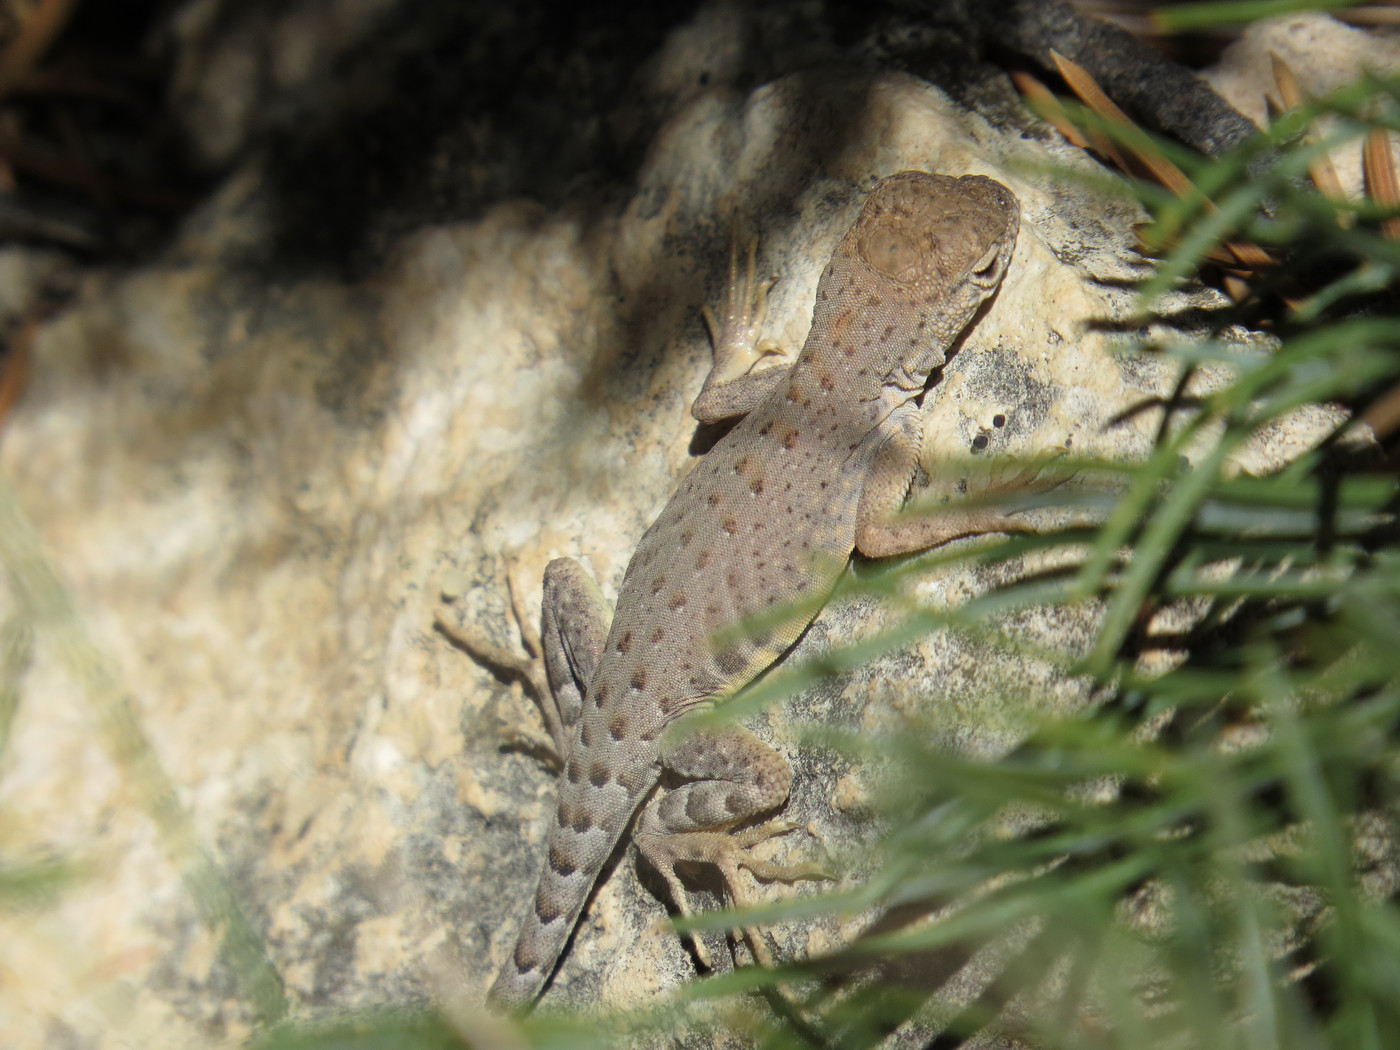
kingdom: Animalia
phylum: Chordata
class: Squamata
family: Phrynosomatidae
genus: Cophosaurus
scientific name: Cophosaurus texanus
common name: Greater earless lizard
